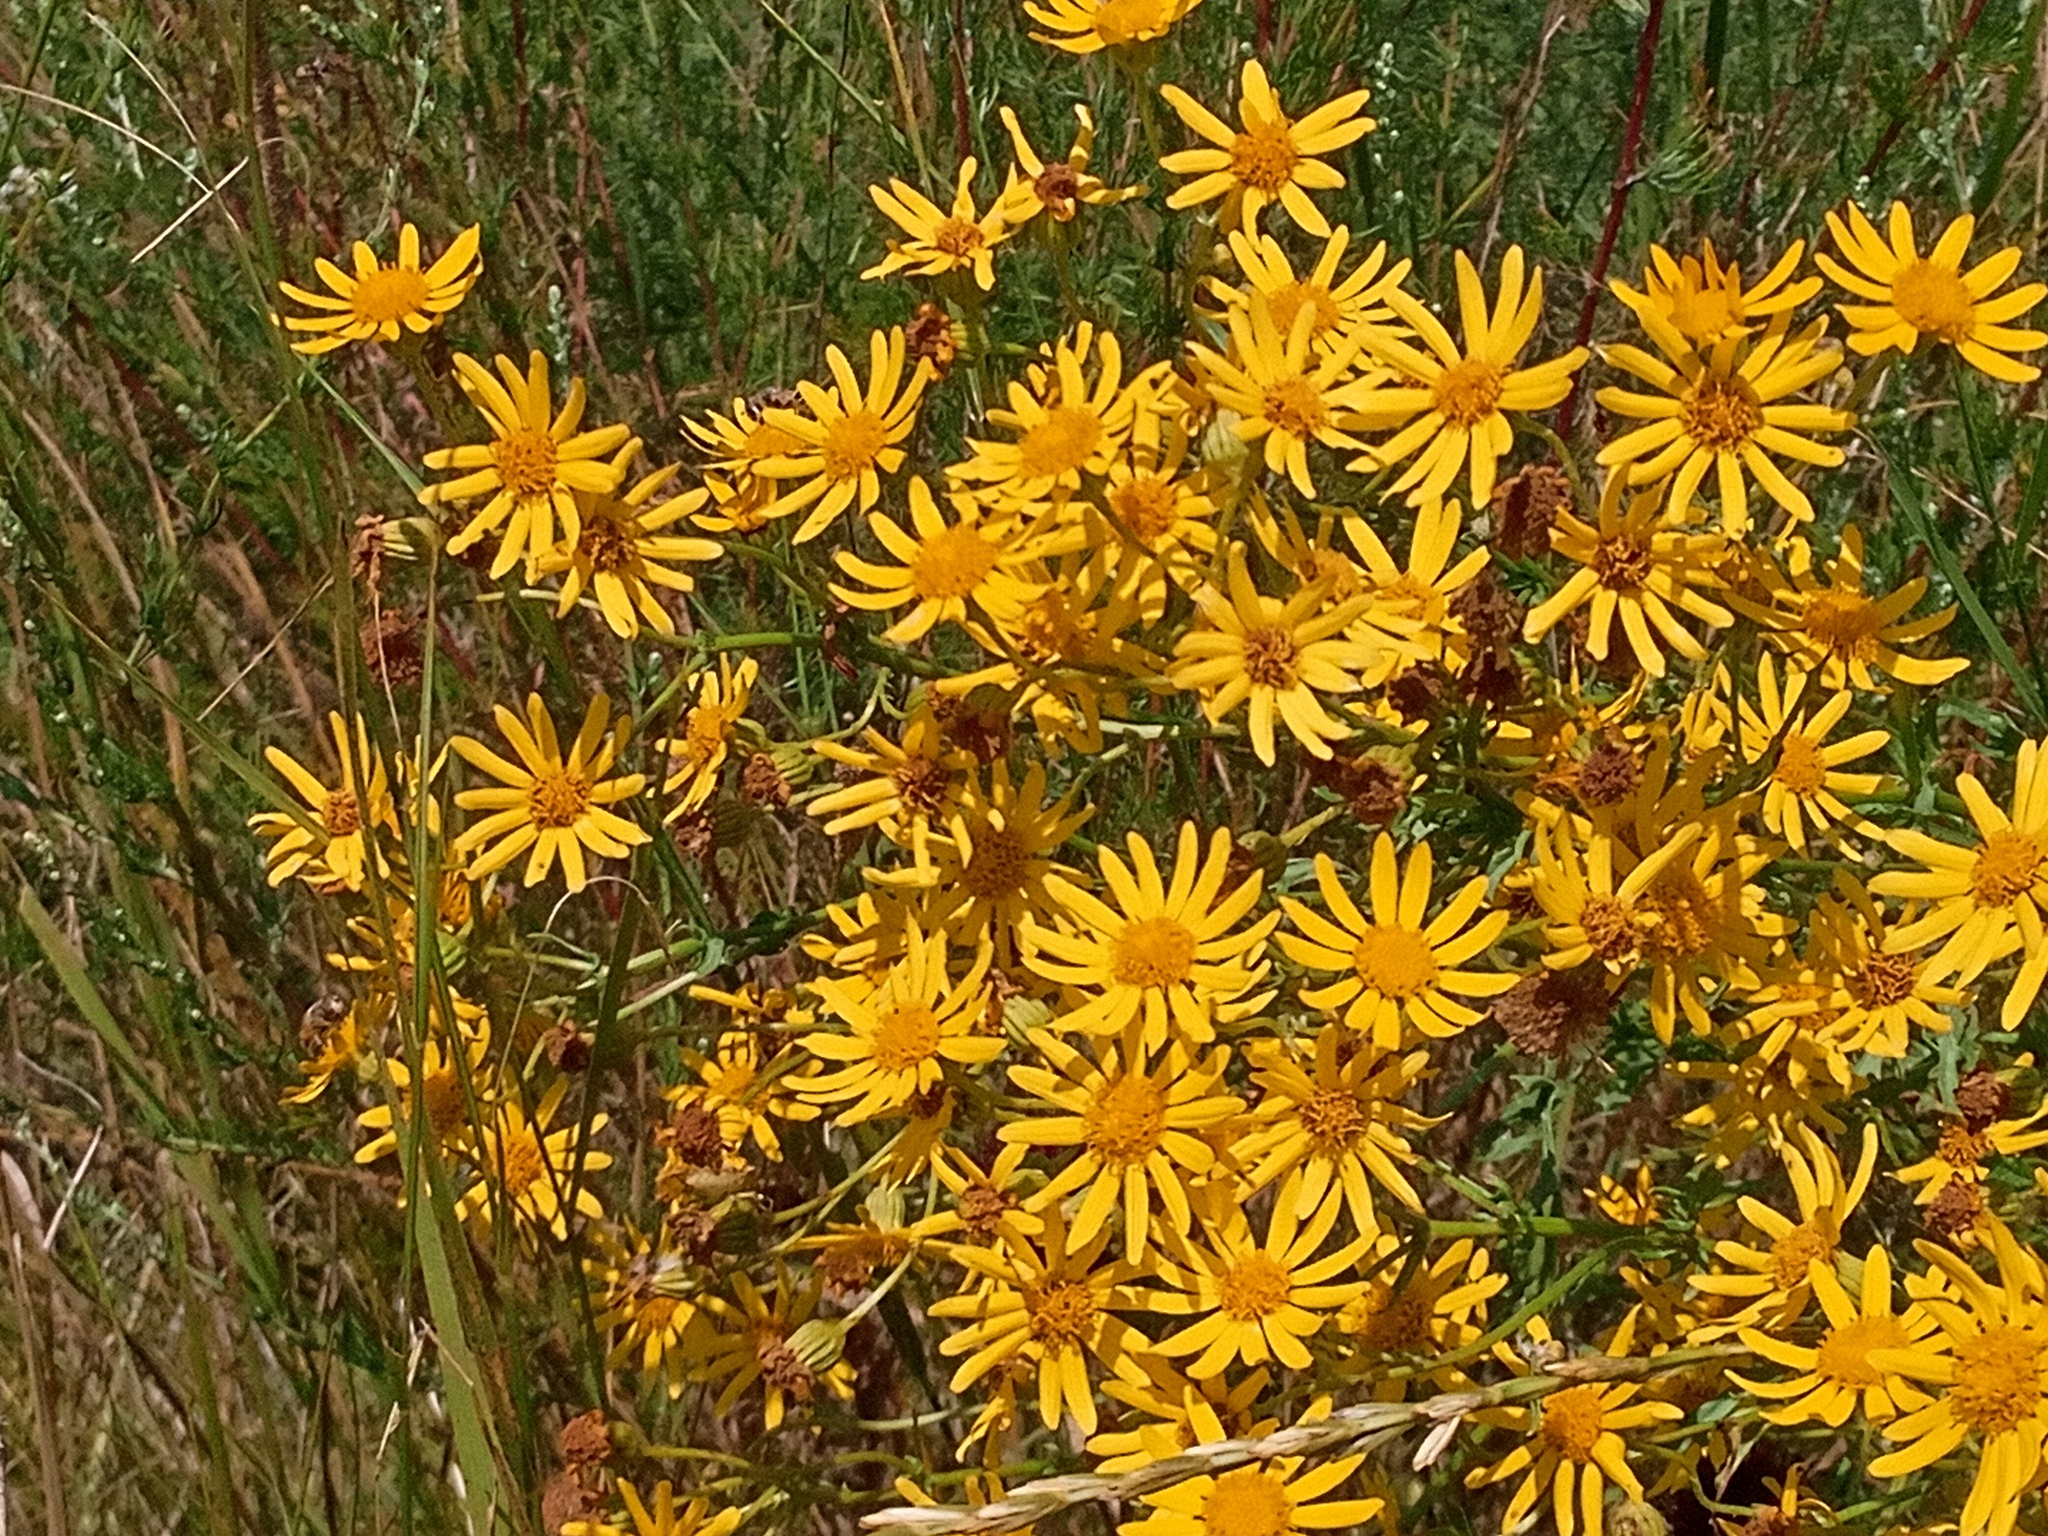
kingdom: Plantae
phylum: Tracheophyta
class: Magnoliopsida
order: Asterales
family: Asteraceae
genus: Jacobaea
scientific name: Jacobaea vulgaris
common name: Stinking willie
